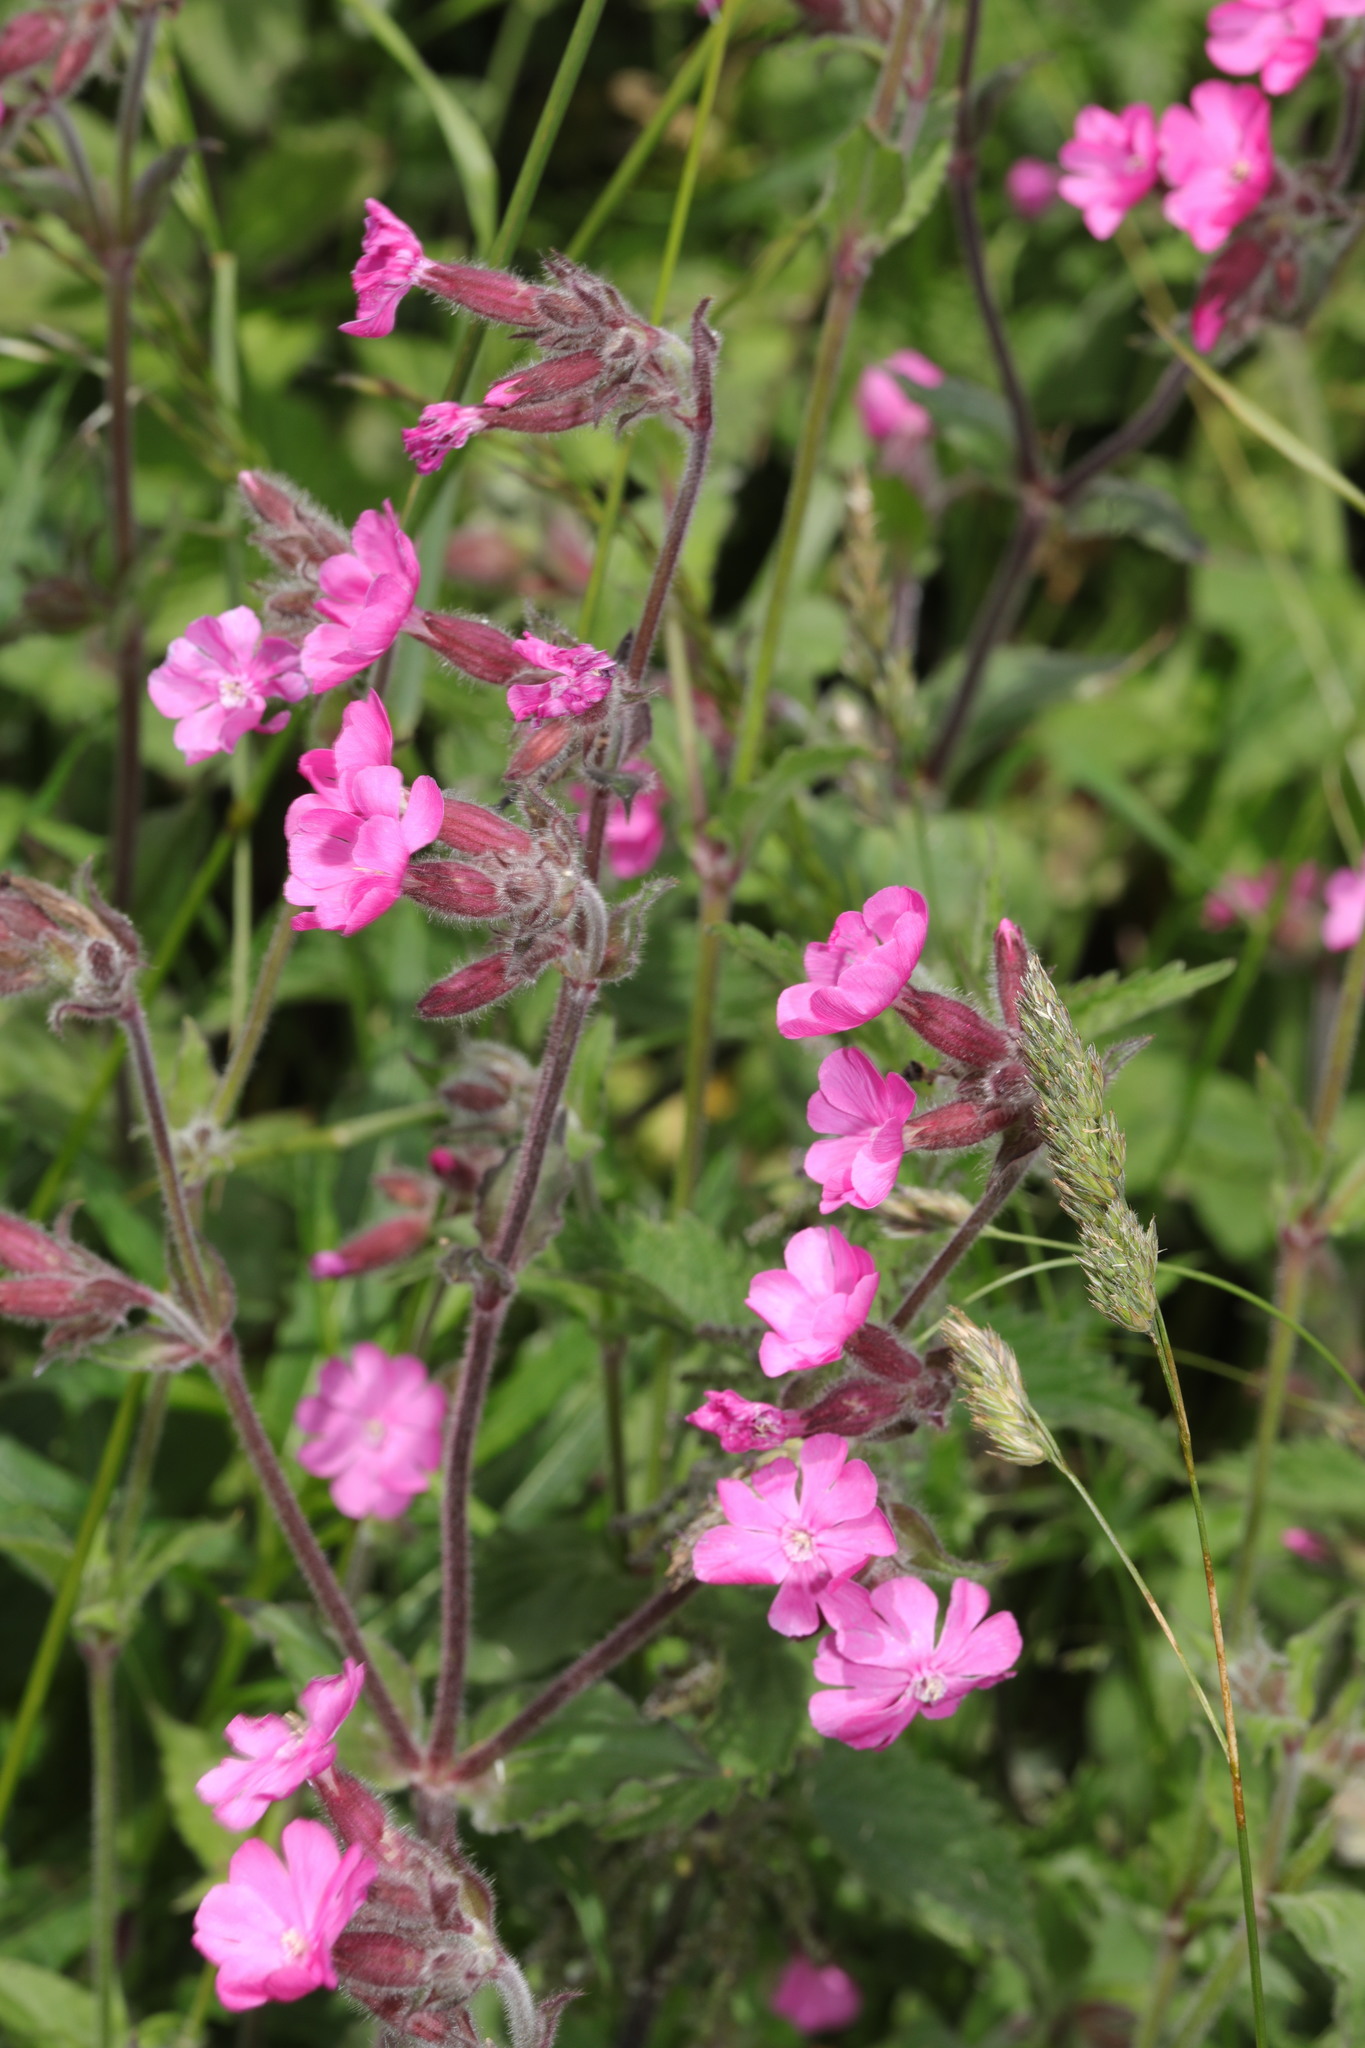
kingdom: Plantae
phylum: Tracheophyta
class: Magnoliopsida
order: Caryophyllales
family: Caryophyllaceae
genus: Silene
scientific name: Silene dioica
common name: Red campion
